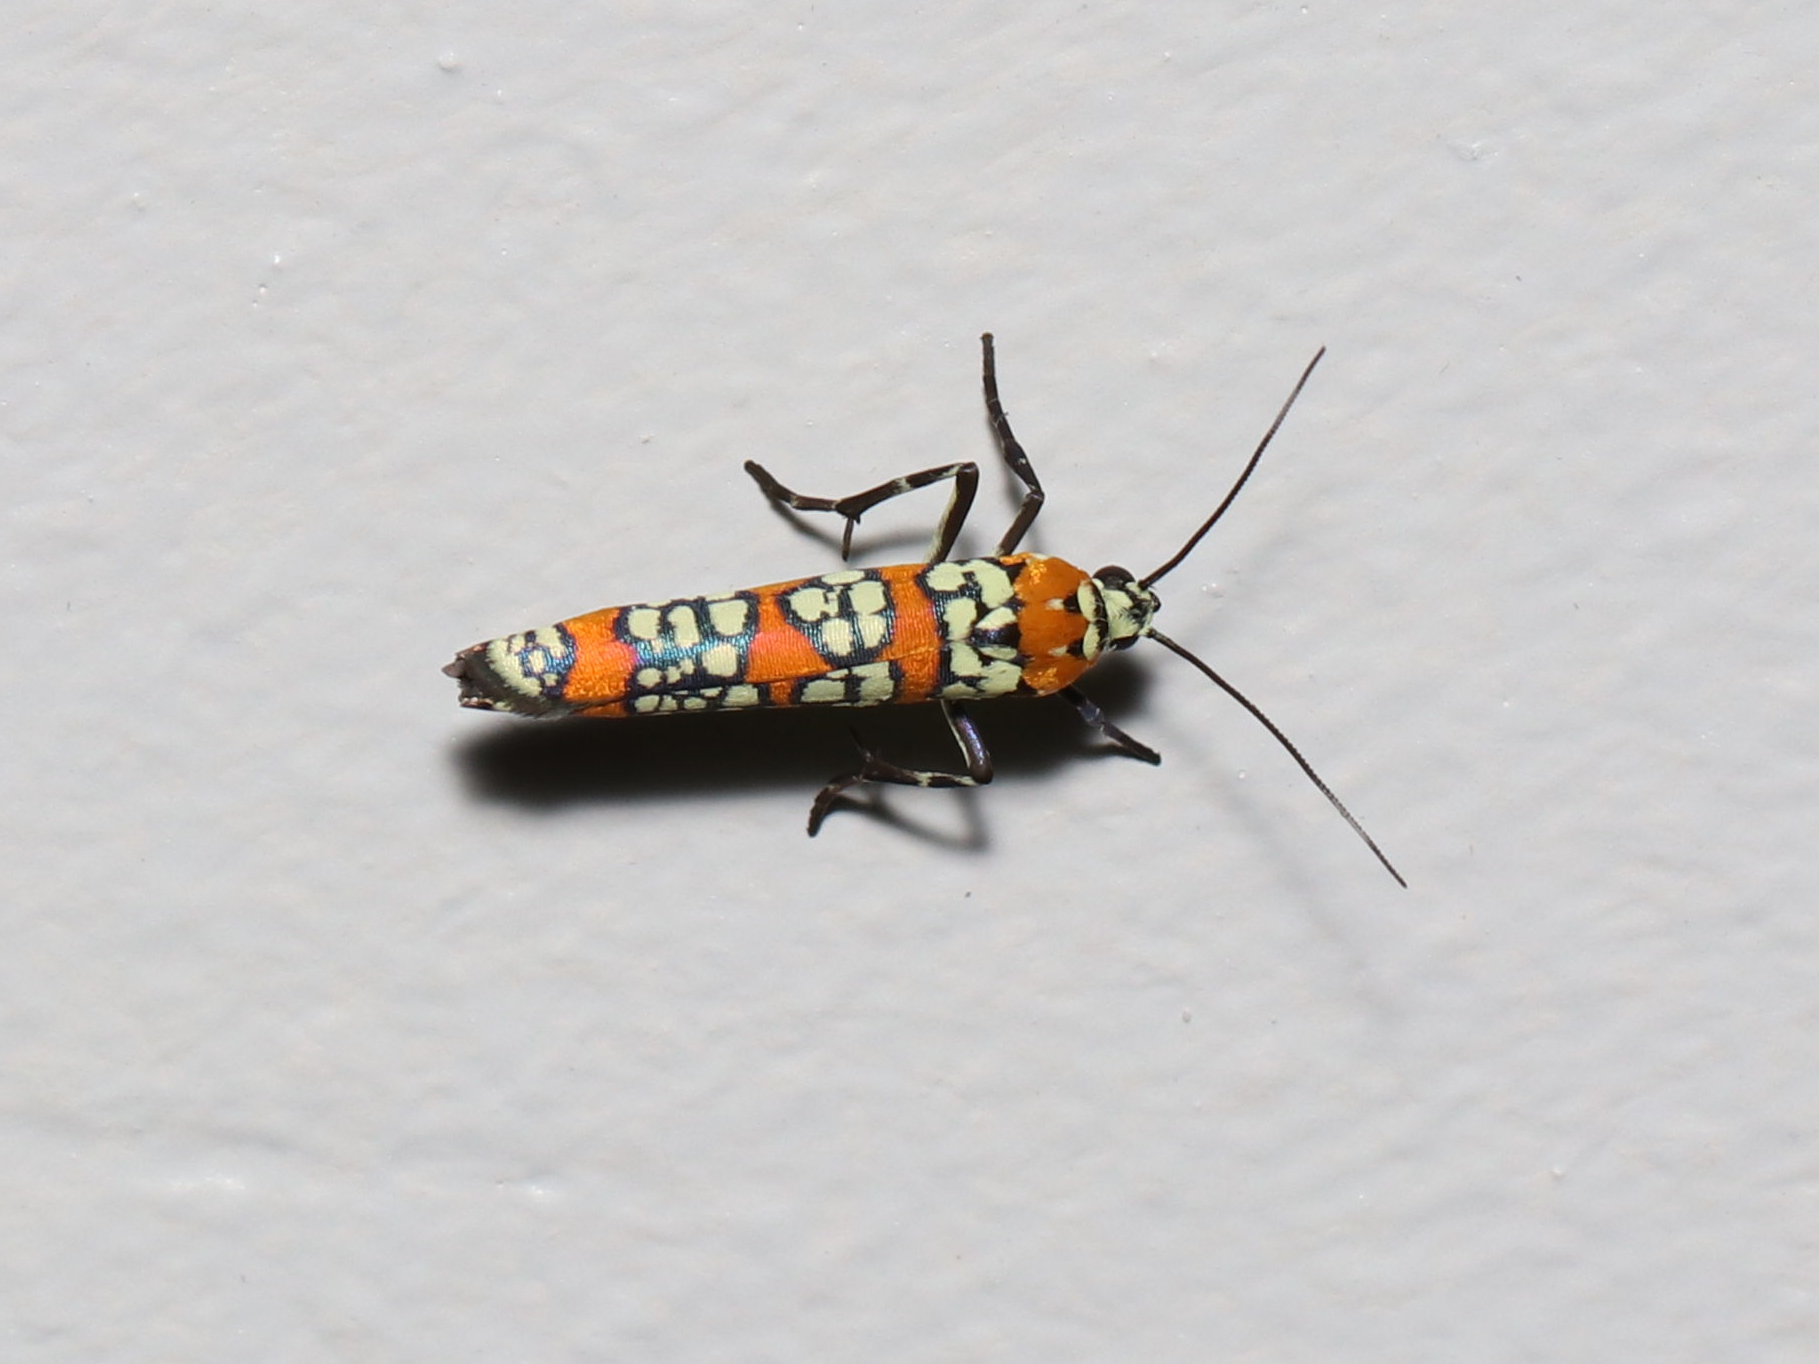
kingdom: Animalia
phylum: Arthropoda
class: Insecta
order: Lepidoptera
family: Attevidae
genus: Atteva
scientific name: Atteva punctella
